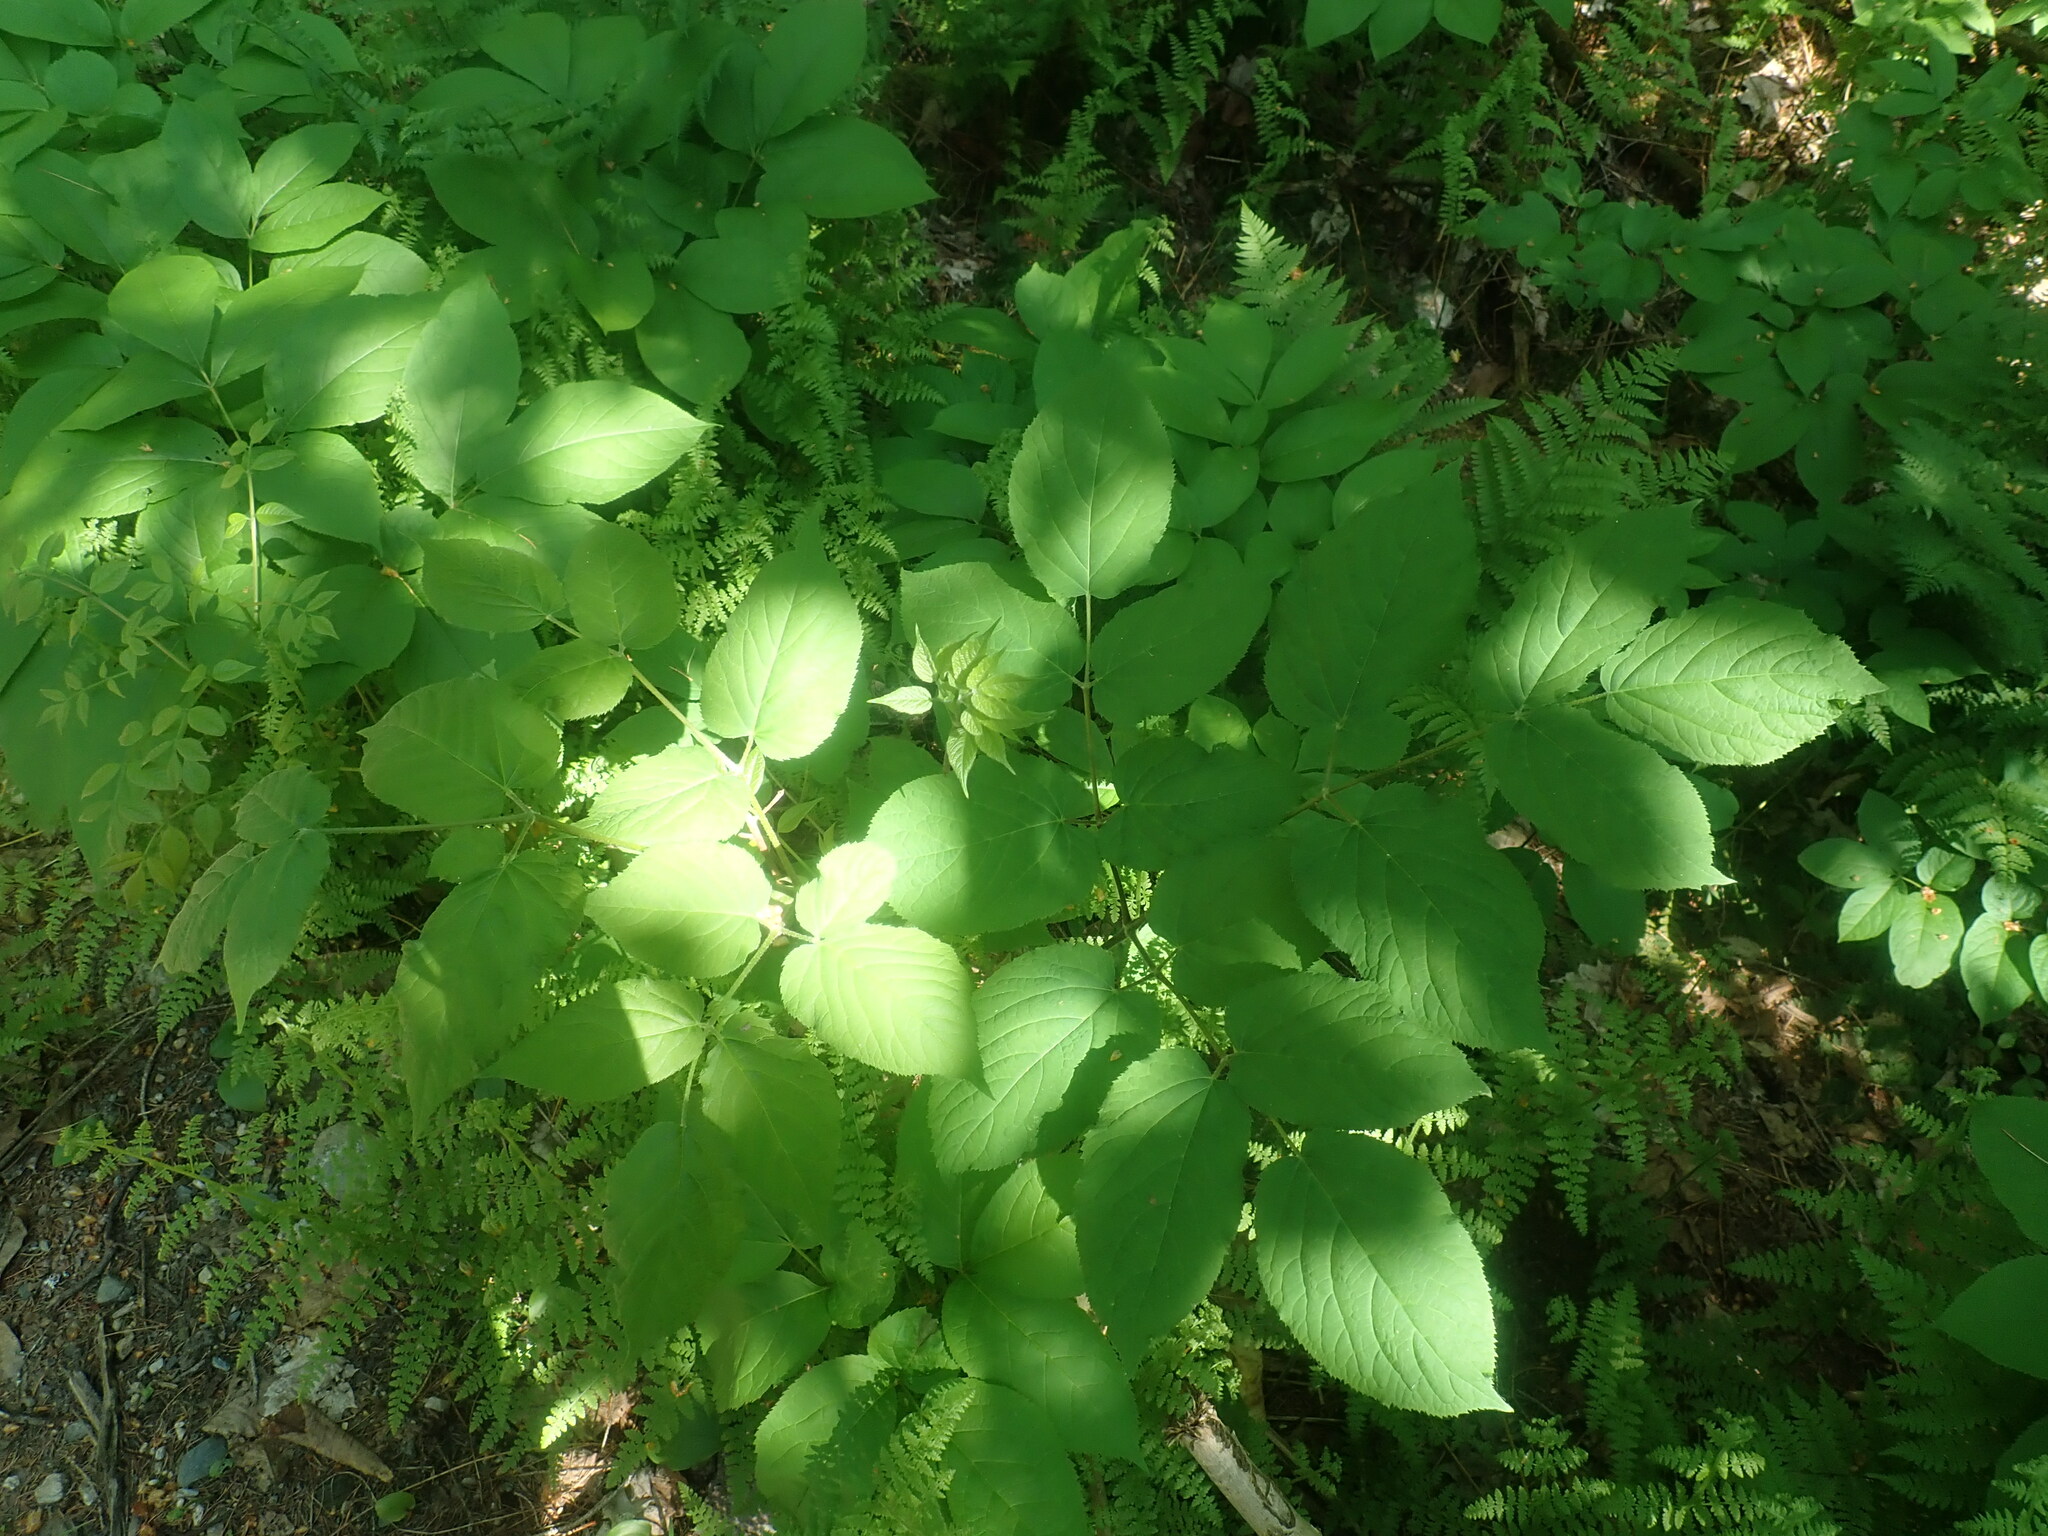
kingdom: Plantae
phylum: Tracheophyta
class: Magnoliopsida
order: Apiales
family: Araliaceae
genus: Aralia
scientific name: Aralia racemosa
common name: American-spikenard
